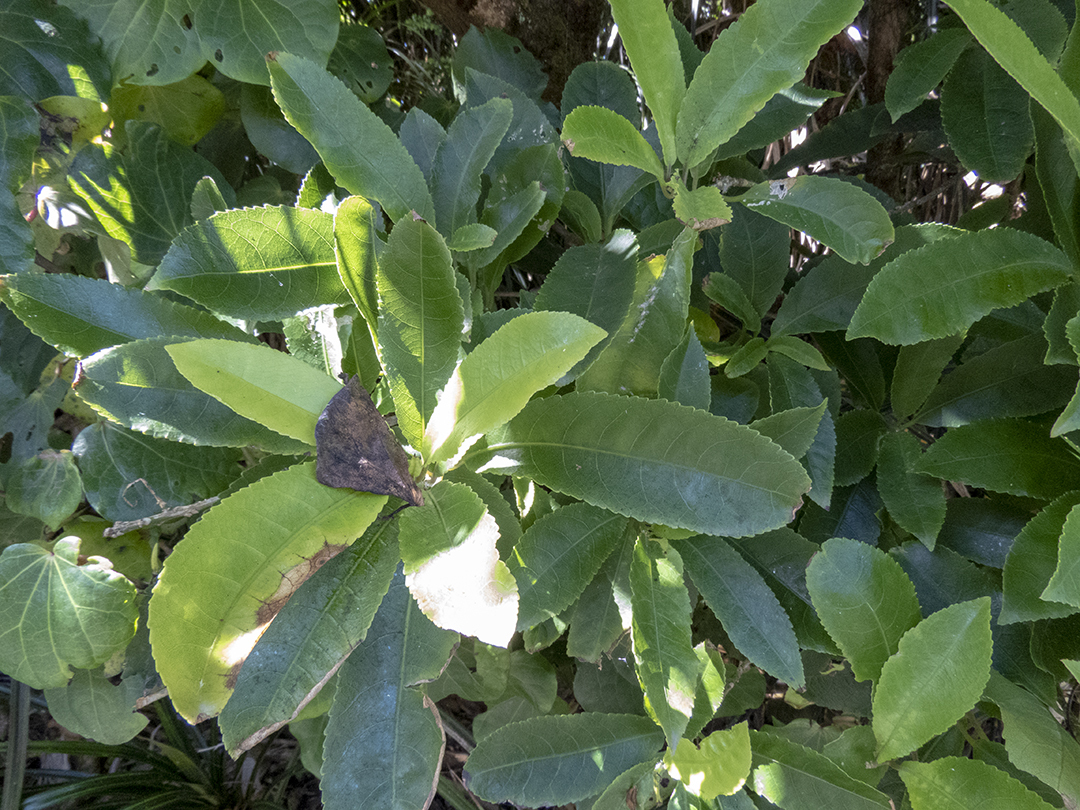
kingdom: Plantae
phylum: Tracheophyta
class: Magnoliopsida
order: Malpighiales
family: Violaceae
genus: Melicytus
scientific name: Melicytus ramiflorus
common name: Mahoe
